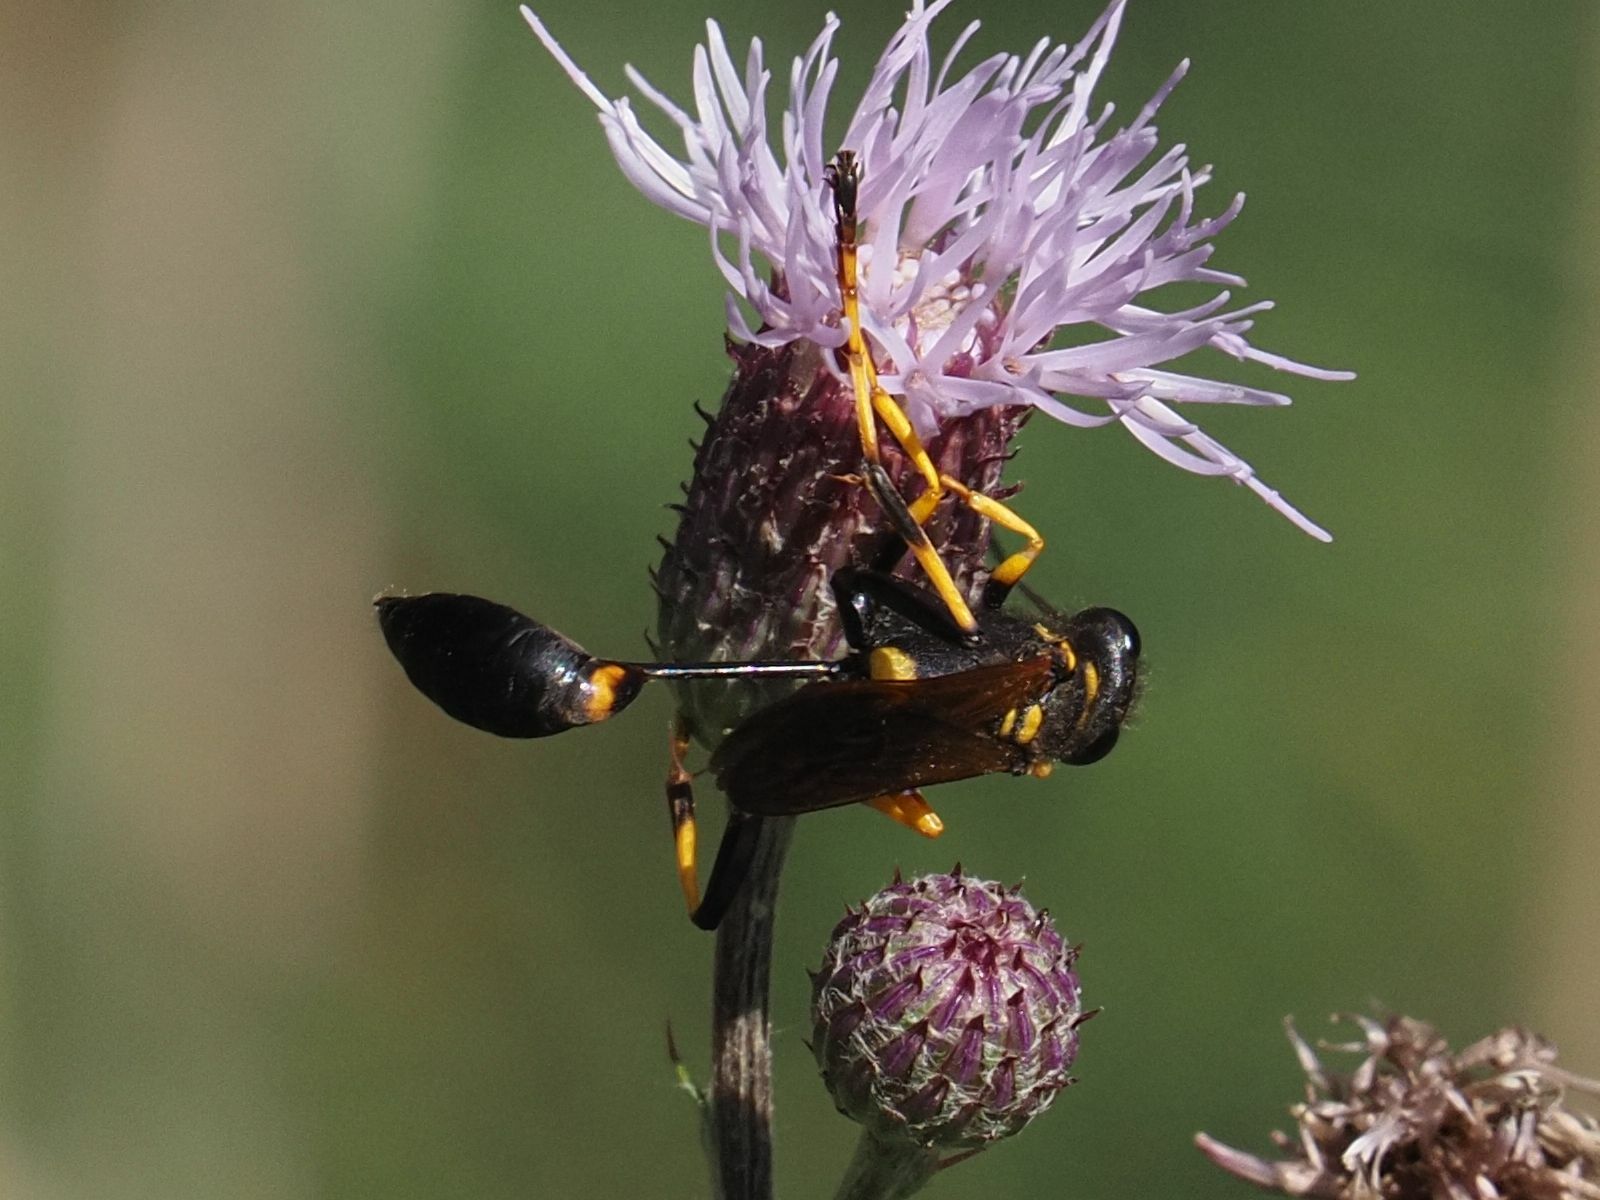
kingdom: Animalia
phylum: Arthropoda
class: Insecta
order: Hymenoptera
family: Sphecidae
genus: Sceliphron
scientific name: Sceliphron caementarium
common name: Mud dauber
